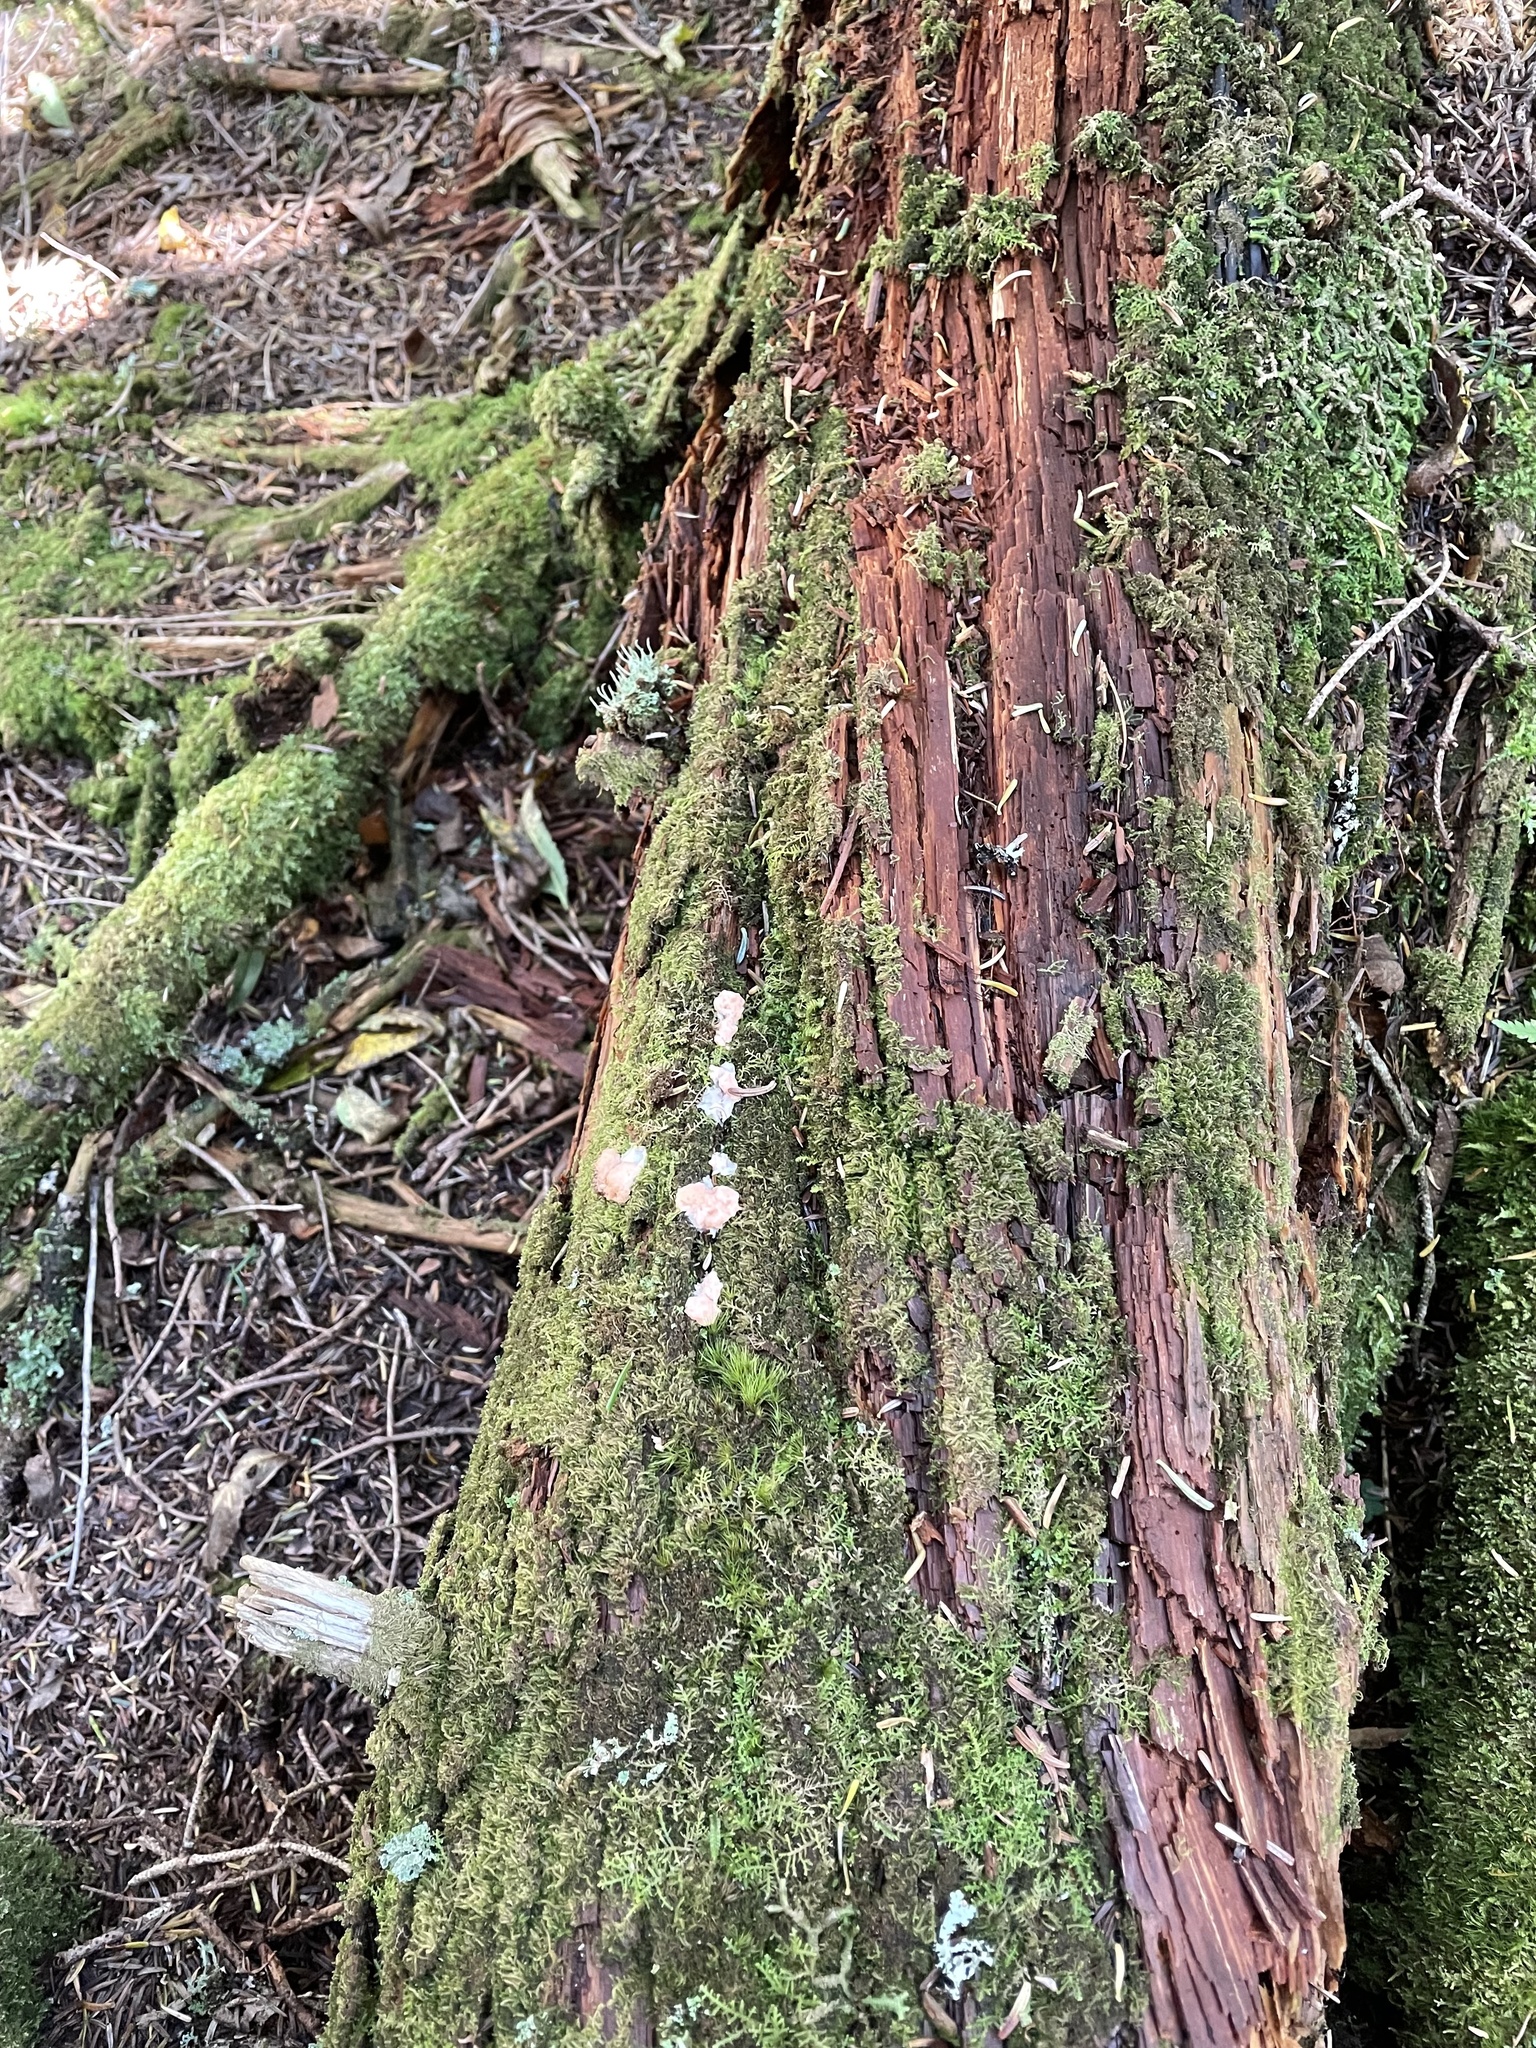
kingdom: Protozoa
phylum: Mycetozoa
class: Myxomycetes
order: Cribrariales
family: Tubiferaceae
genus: Tubifera
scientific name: Tubifera ferruginosa
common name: Red raspberry slime mold
